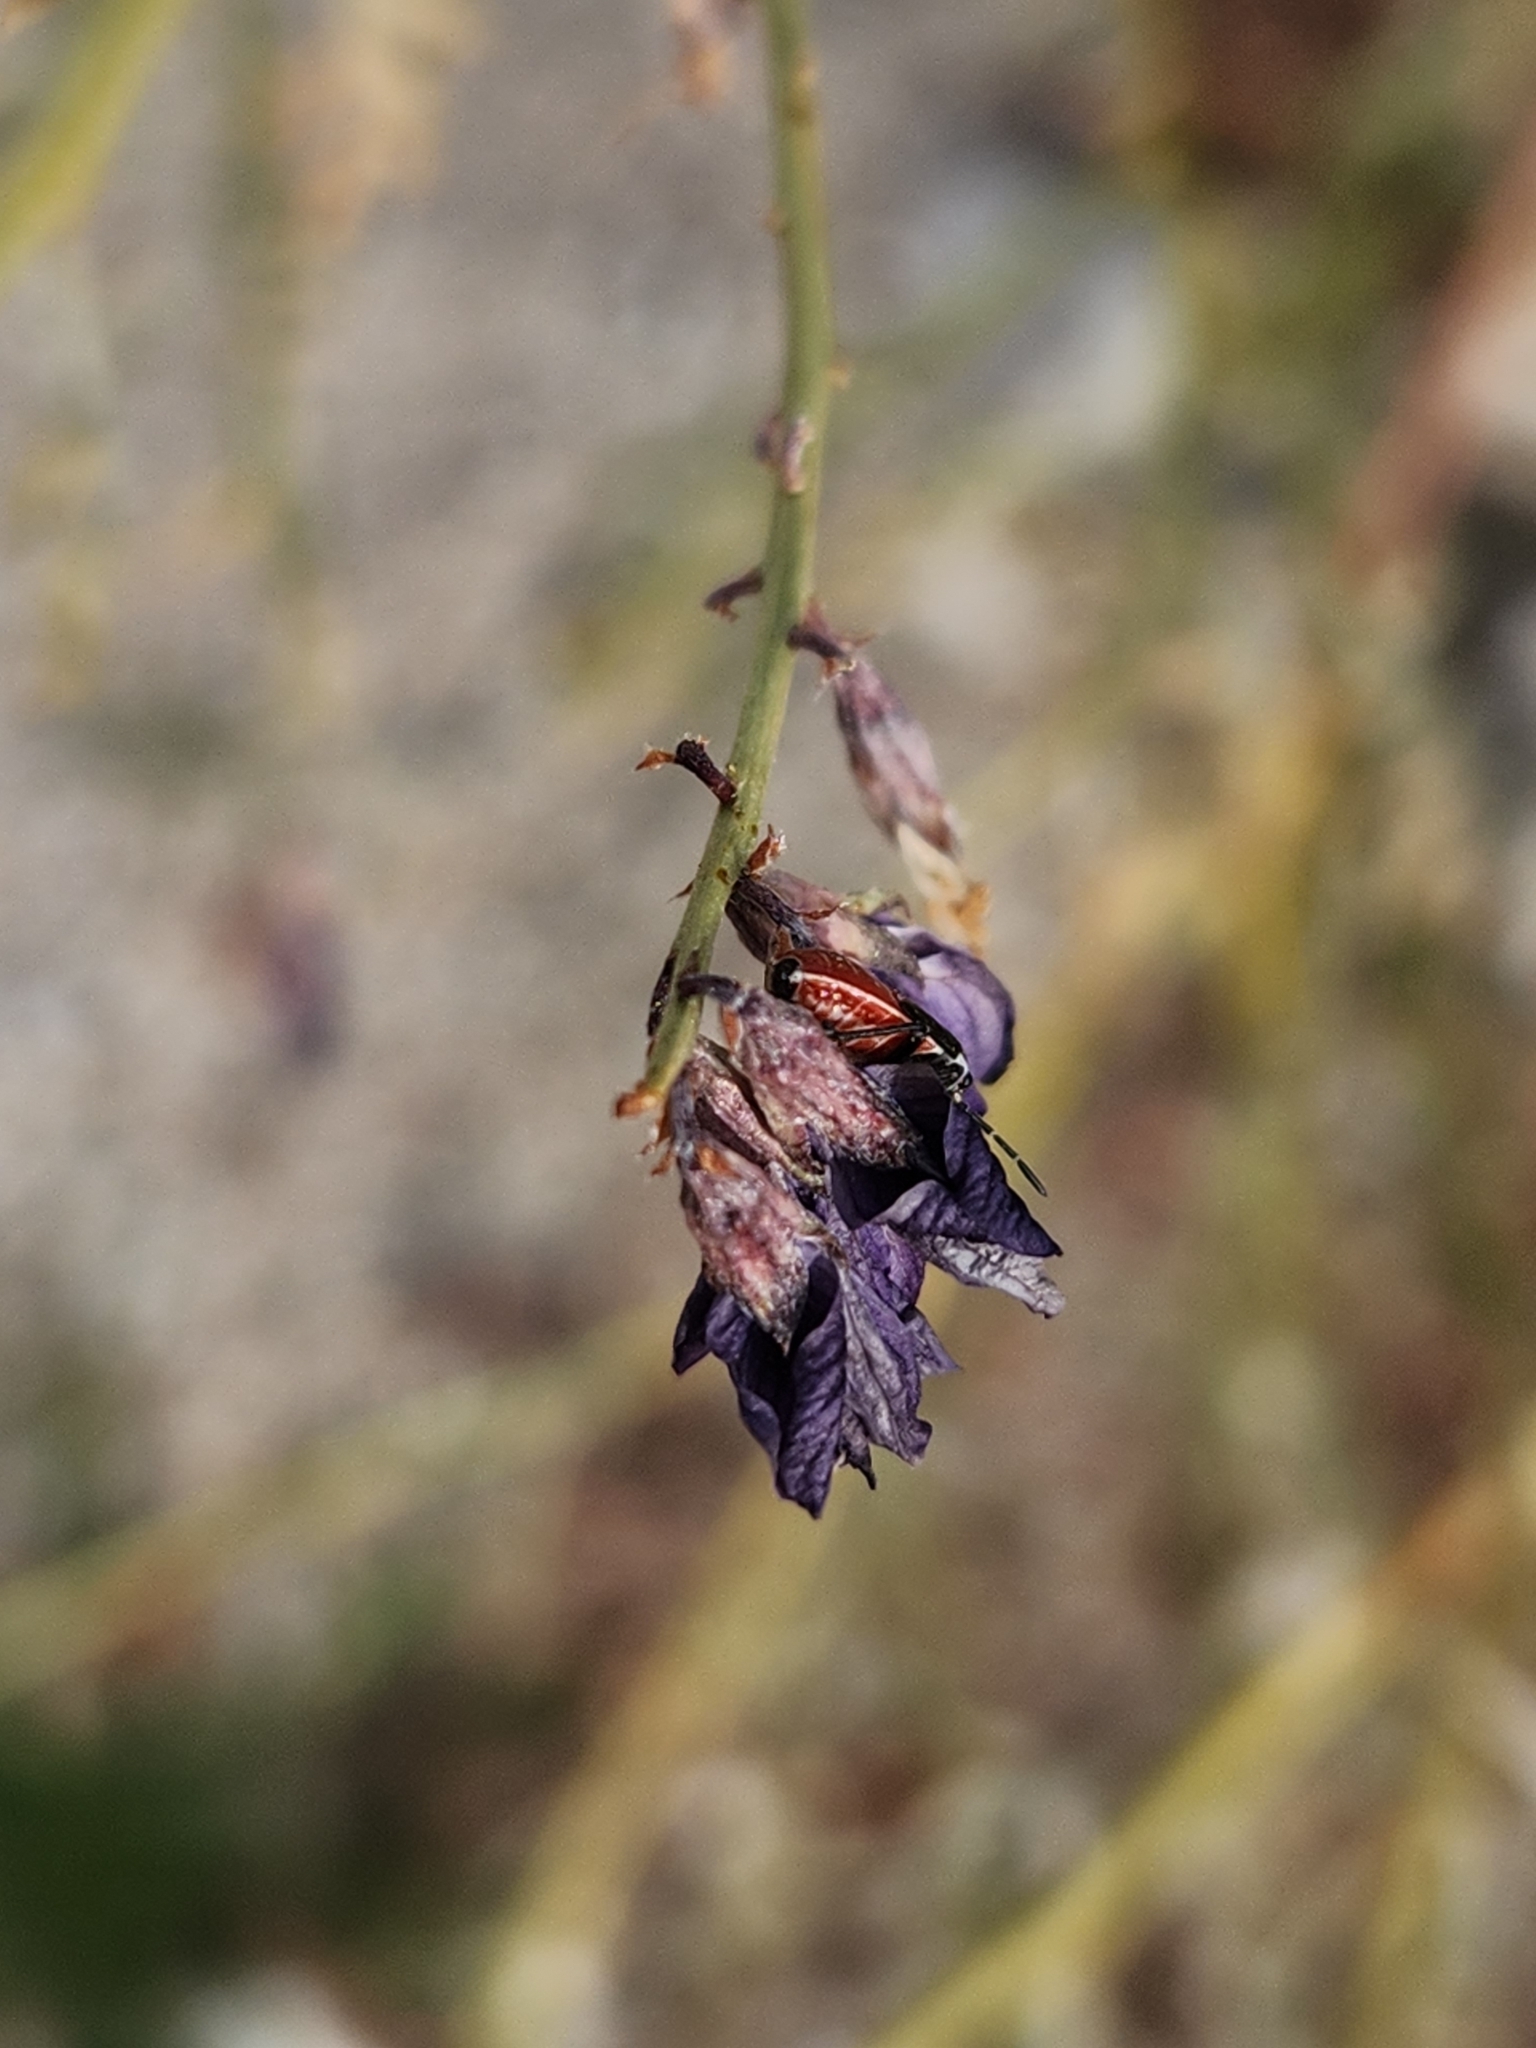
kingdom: Plantae
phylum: Tracheophyta
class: Magnoliopsida
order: Fabales
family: Fabaceae
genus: Psorothamnus
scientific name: Psorothamnus arborescens
